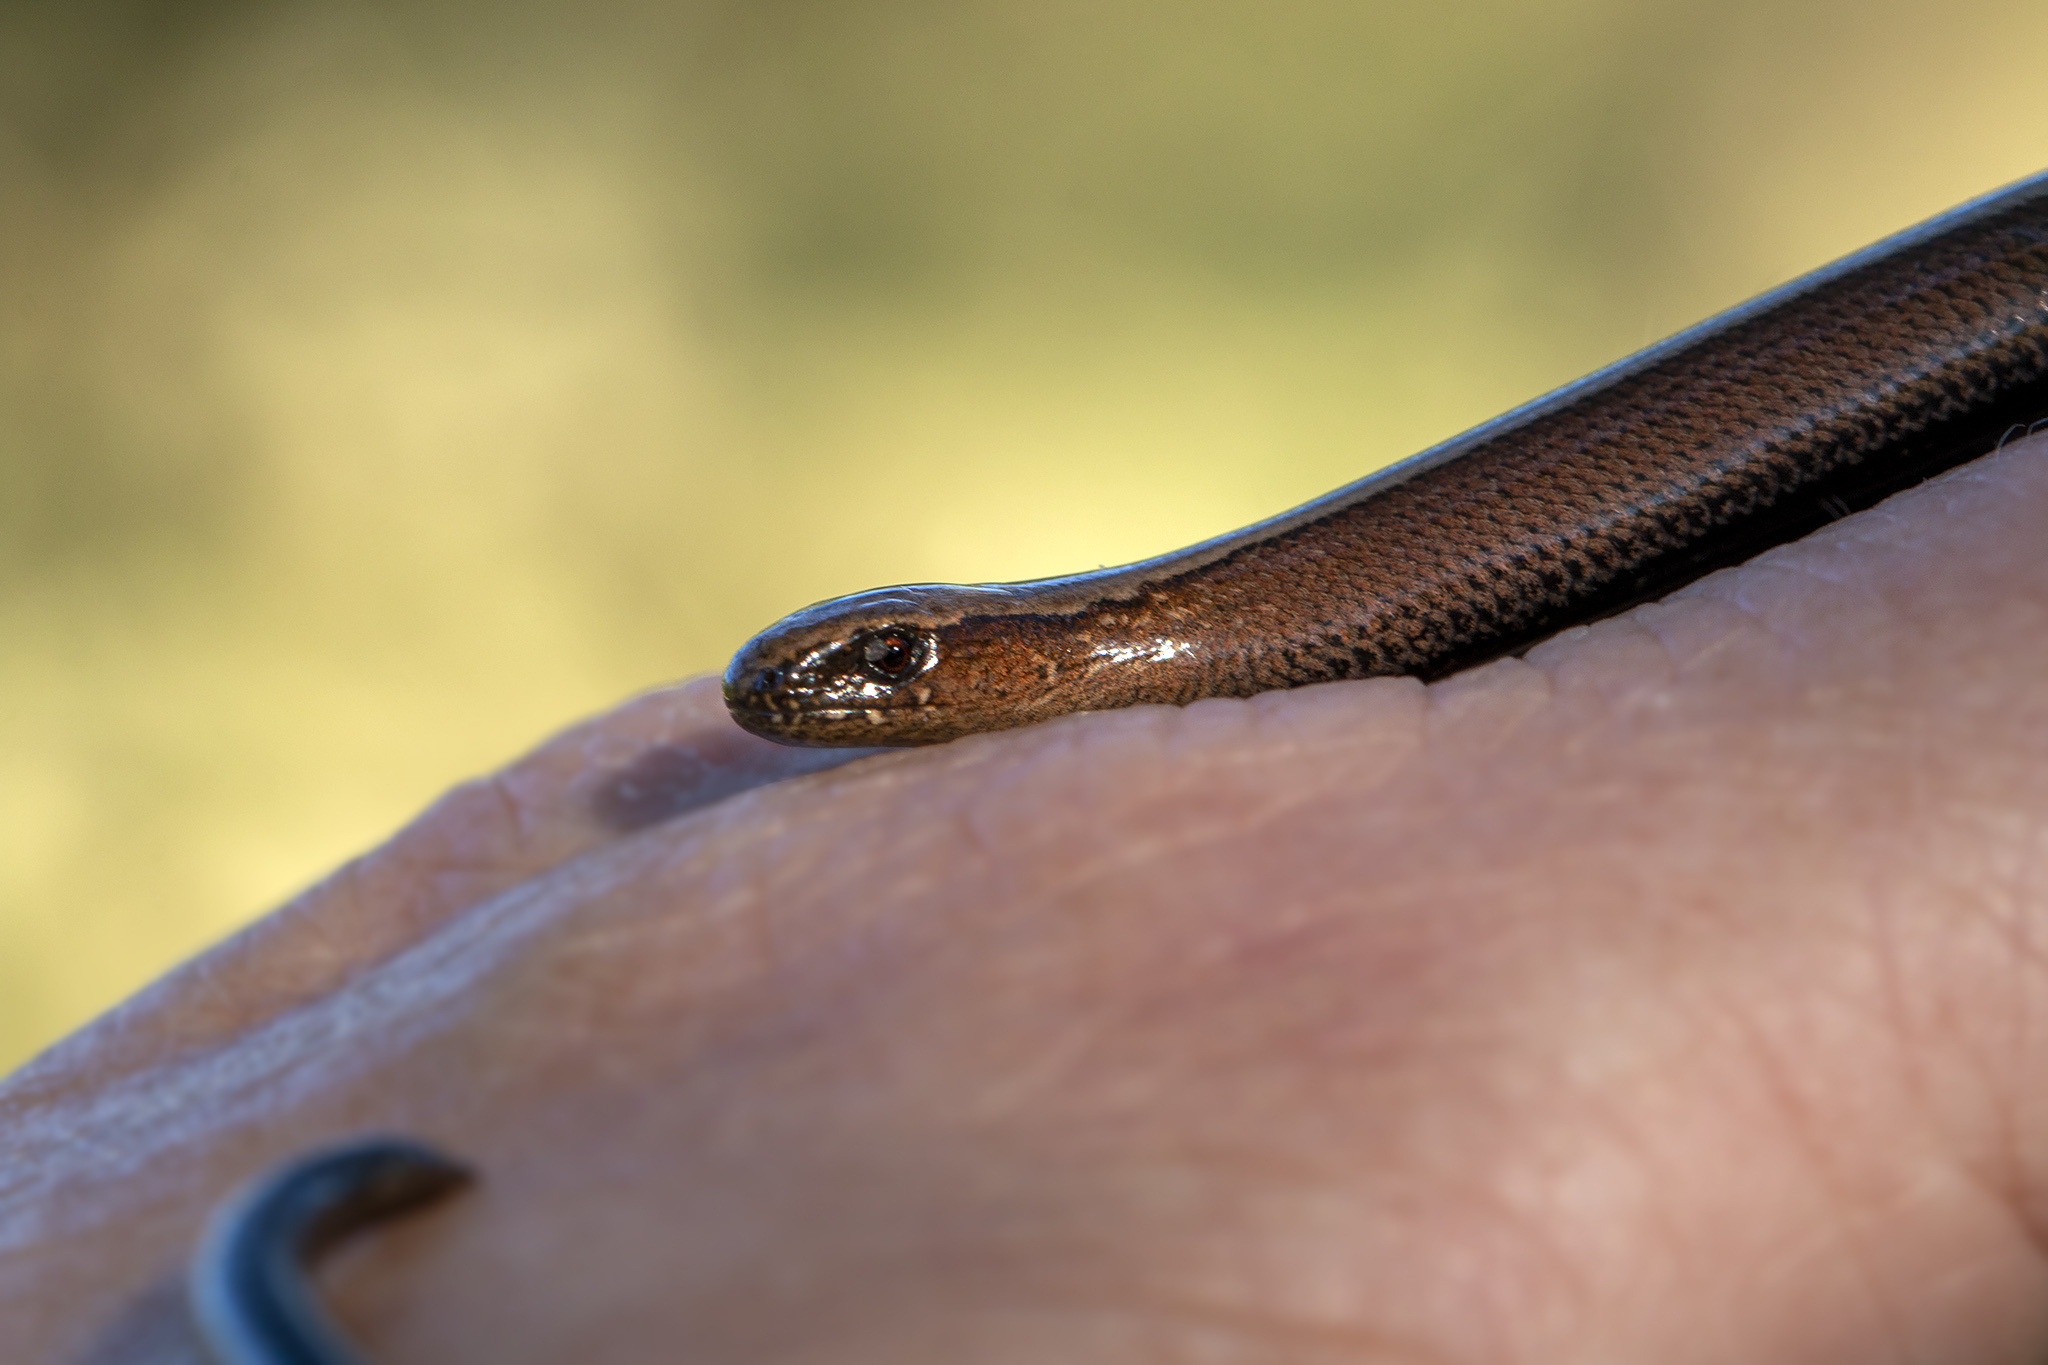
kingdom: Animalia
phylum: Chordata
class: Squamata
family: Anguidae
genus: Anguis
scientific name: Anguis fragilis
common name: Slow worm
